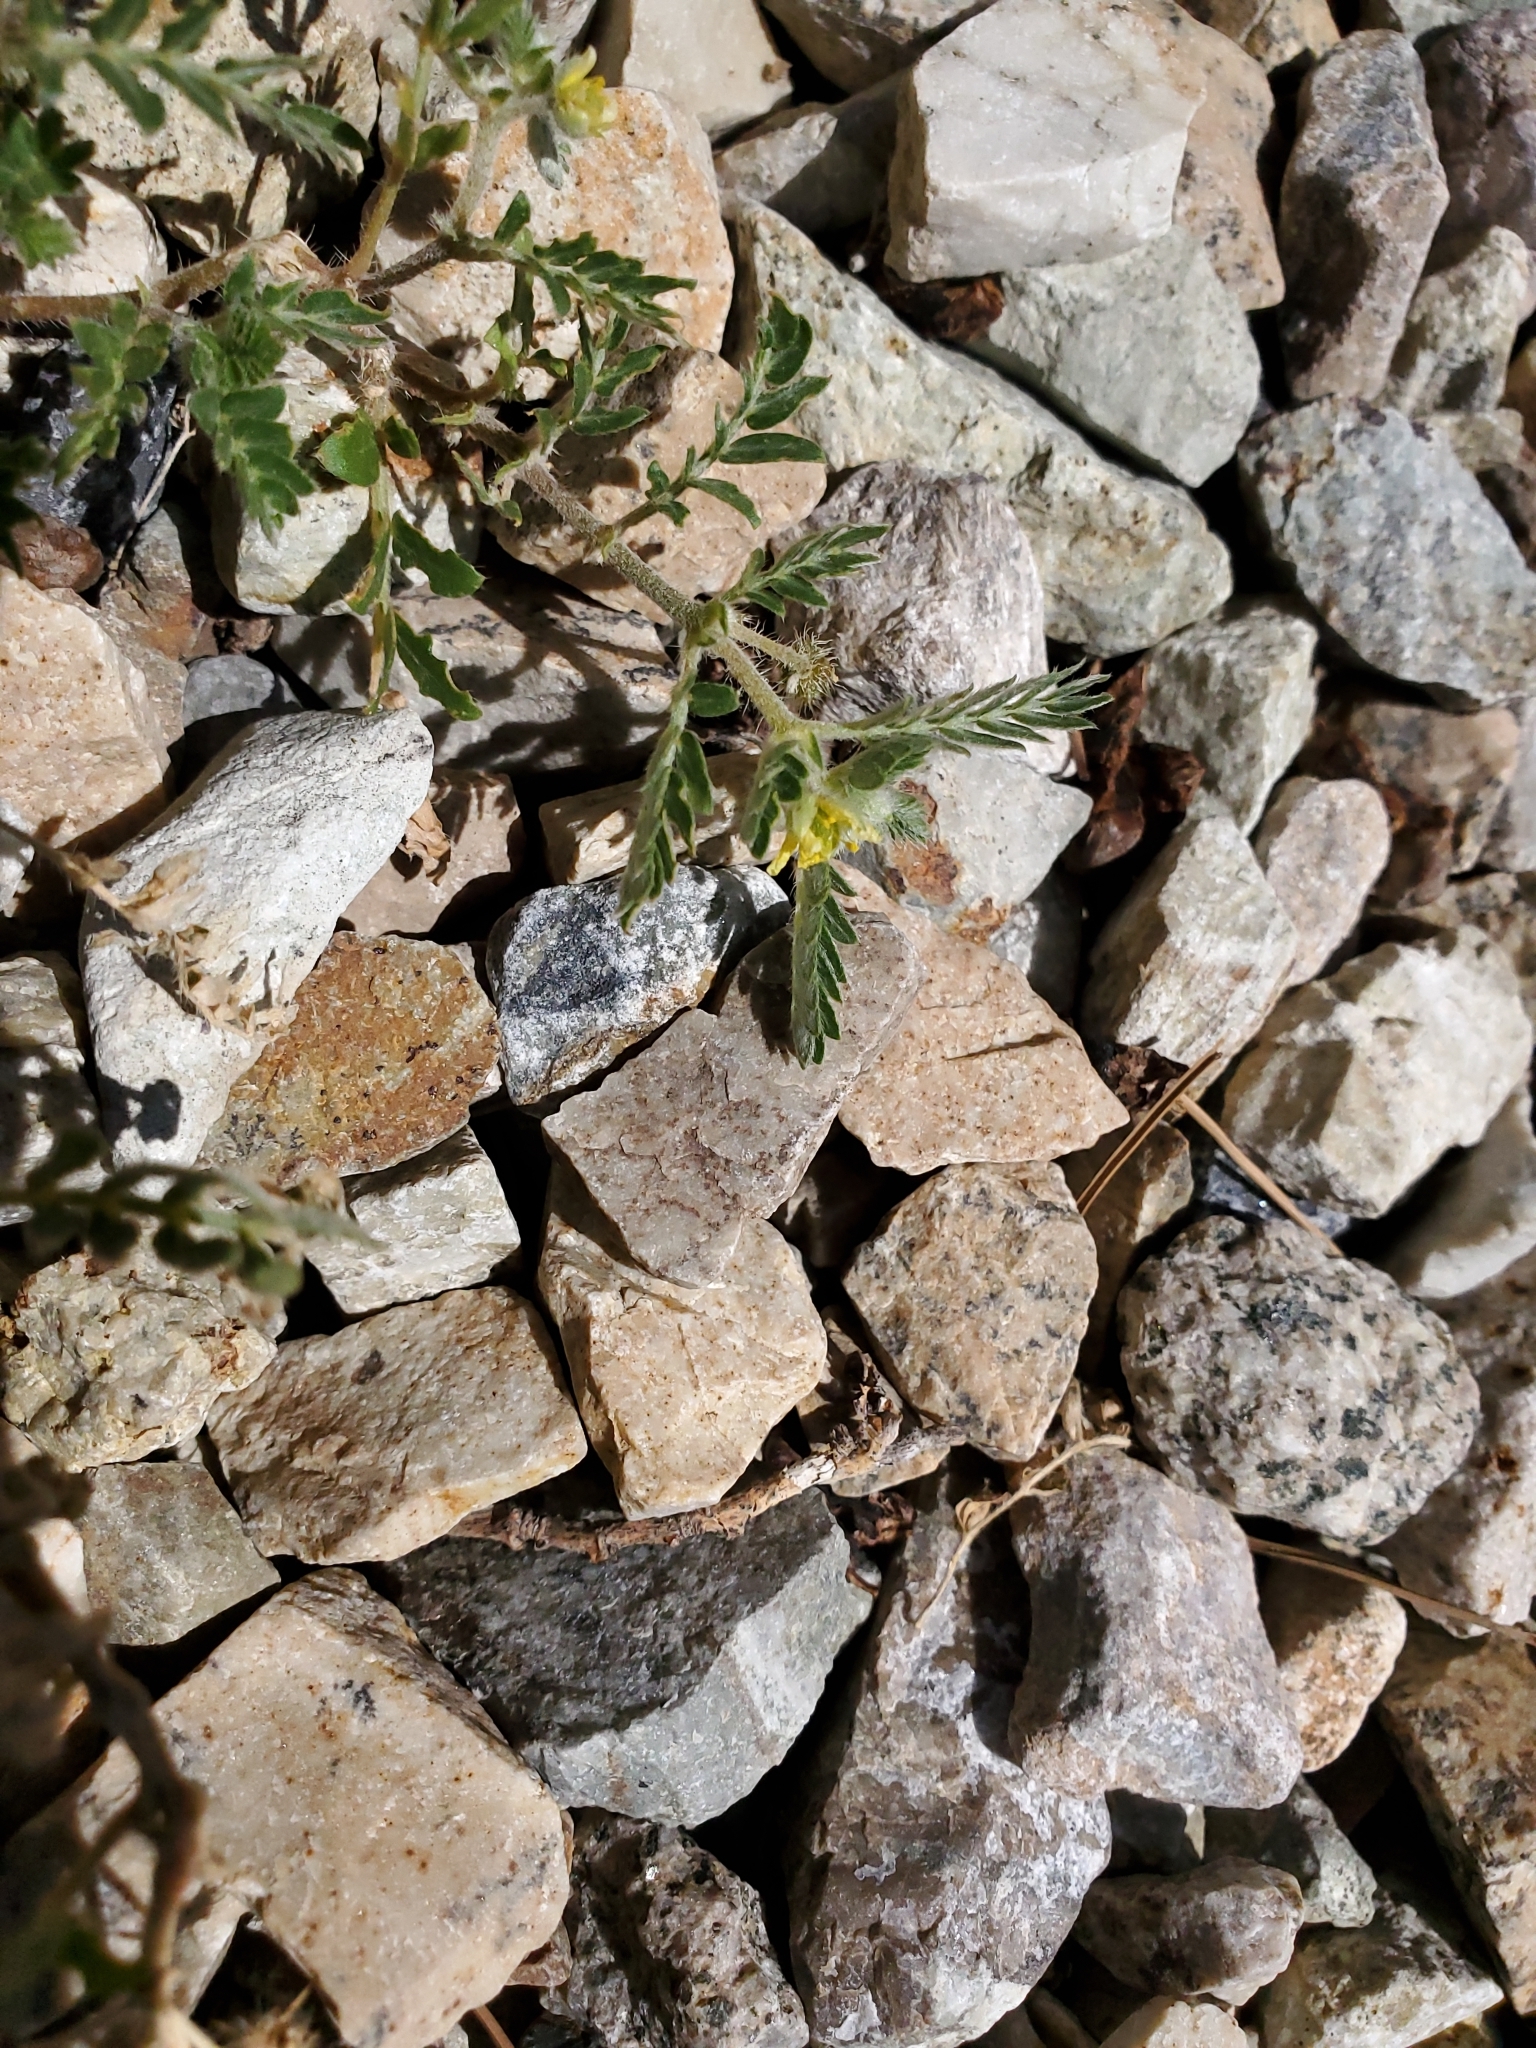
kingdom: Plantae
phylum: Tracheophyta
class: Magnoliopsida
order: Zygophyllales
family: Zygophyllaceae
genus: Tribulus
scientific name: Tribulus terrestris
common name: Puncturevine
